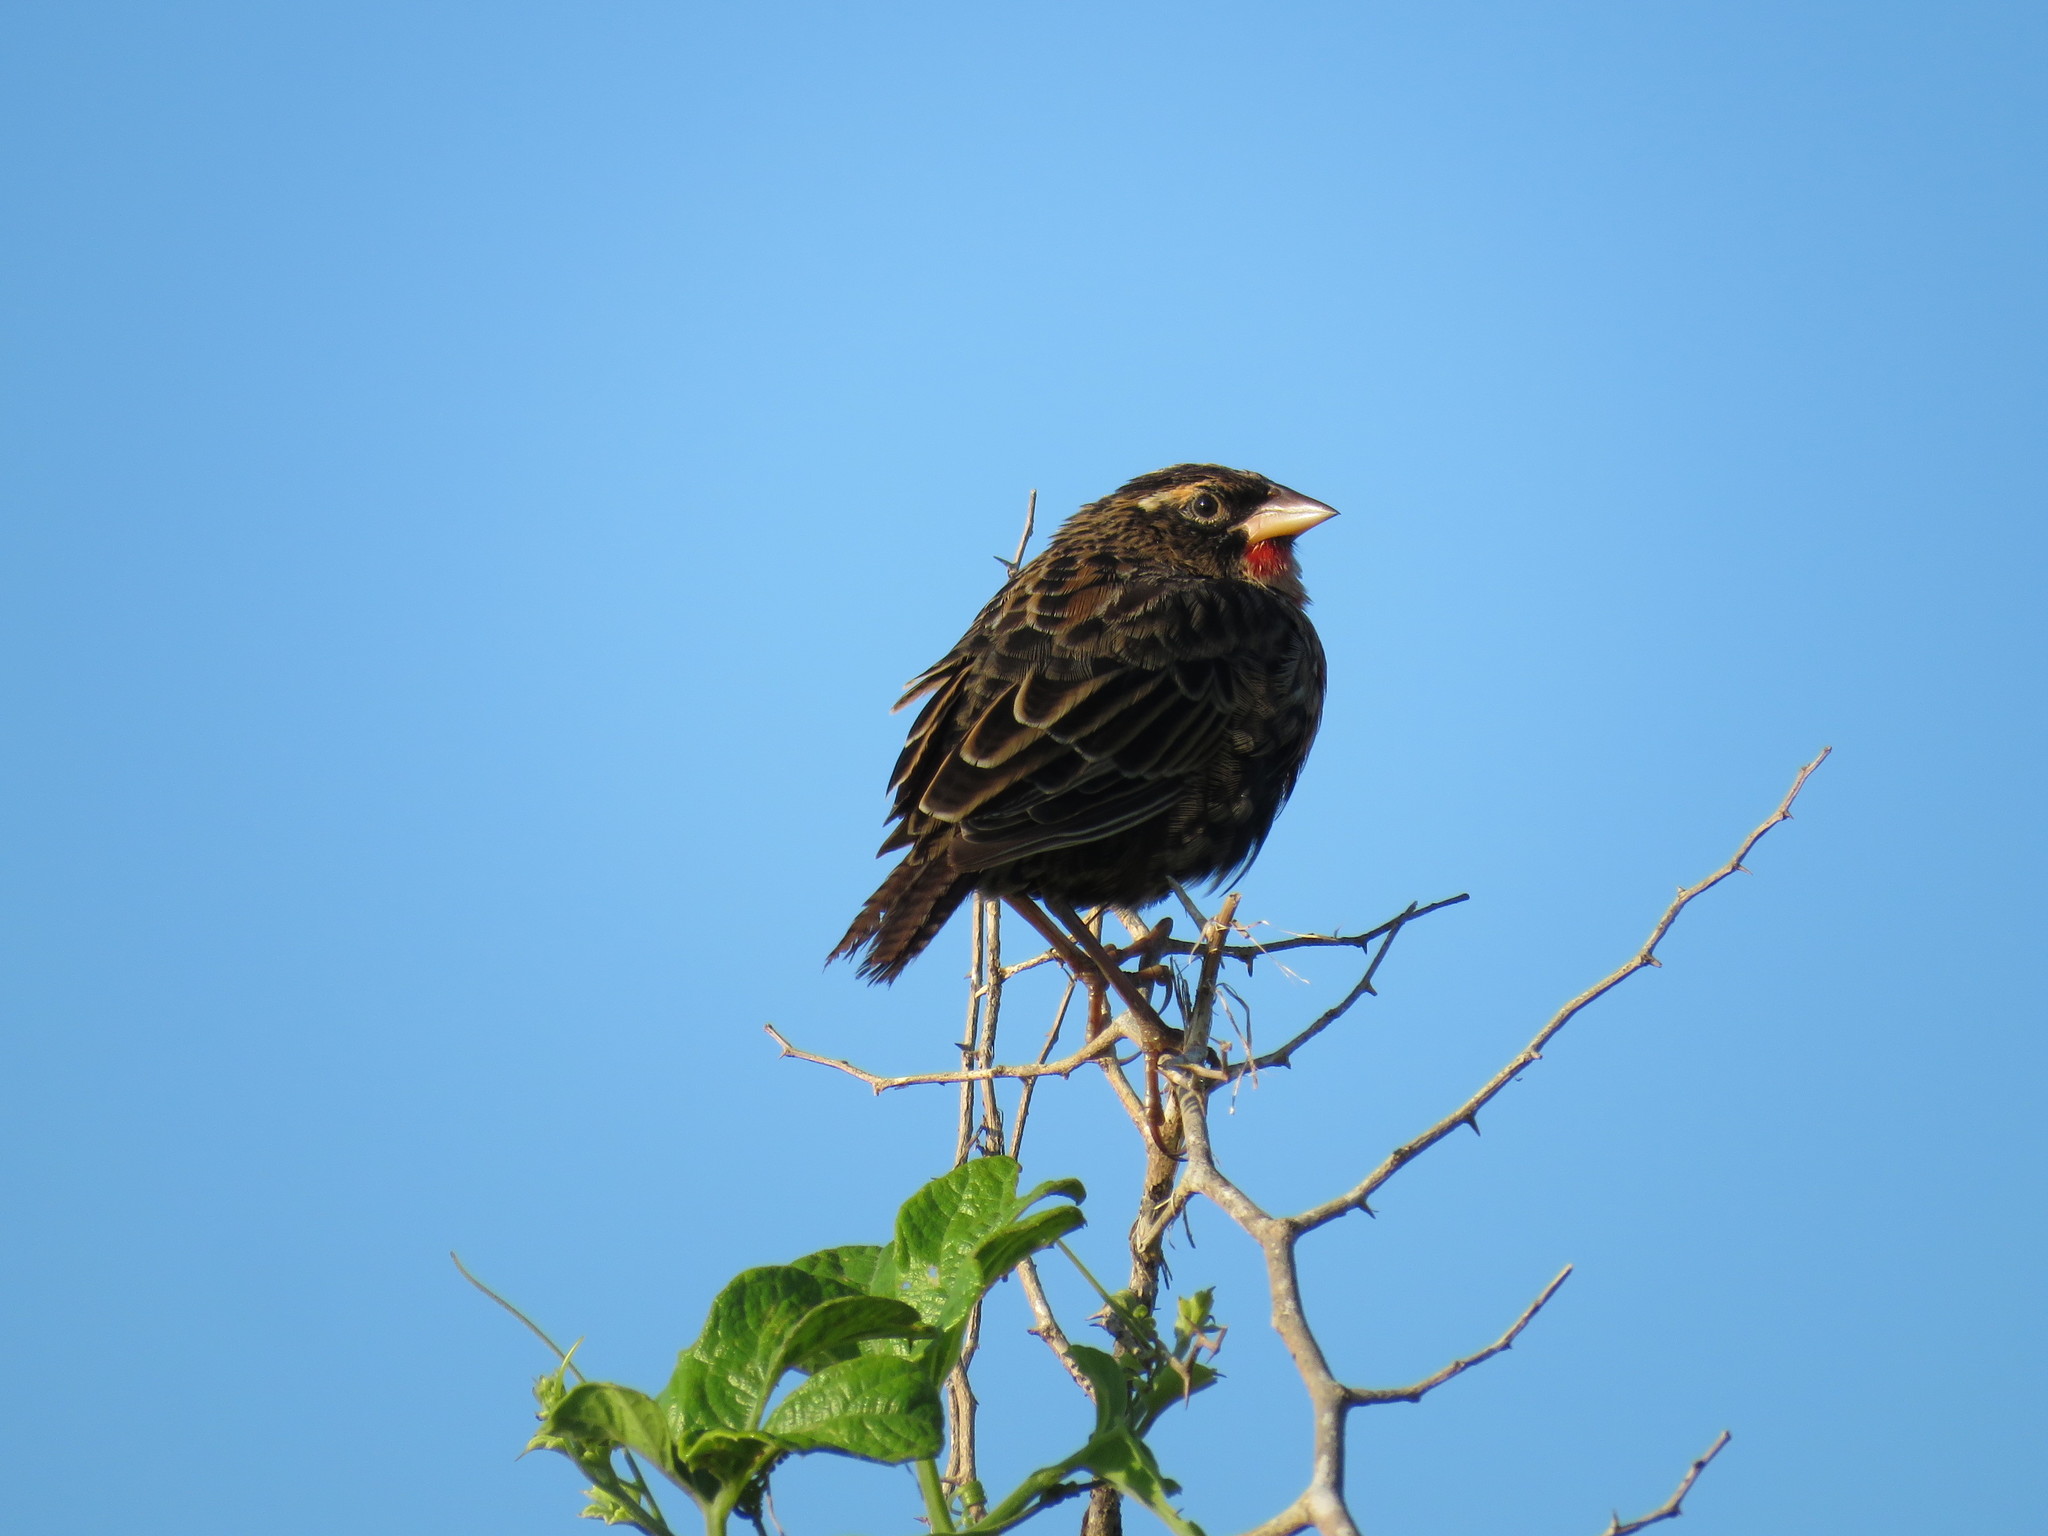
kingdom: Animalia
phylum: Chordata
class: Aves
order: Passeriformes
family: Icteridae
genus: Sturnella
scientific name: Sturnella superciliaris
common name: White-browed blackbird
